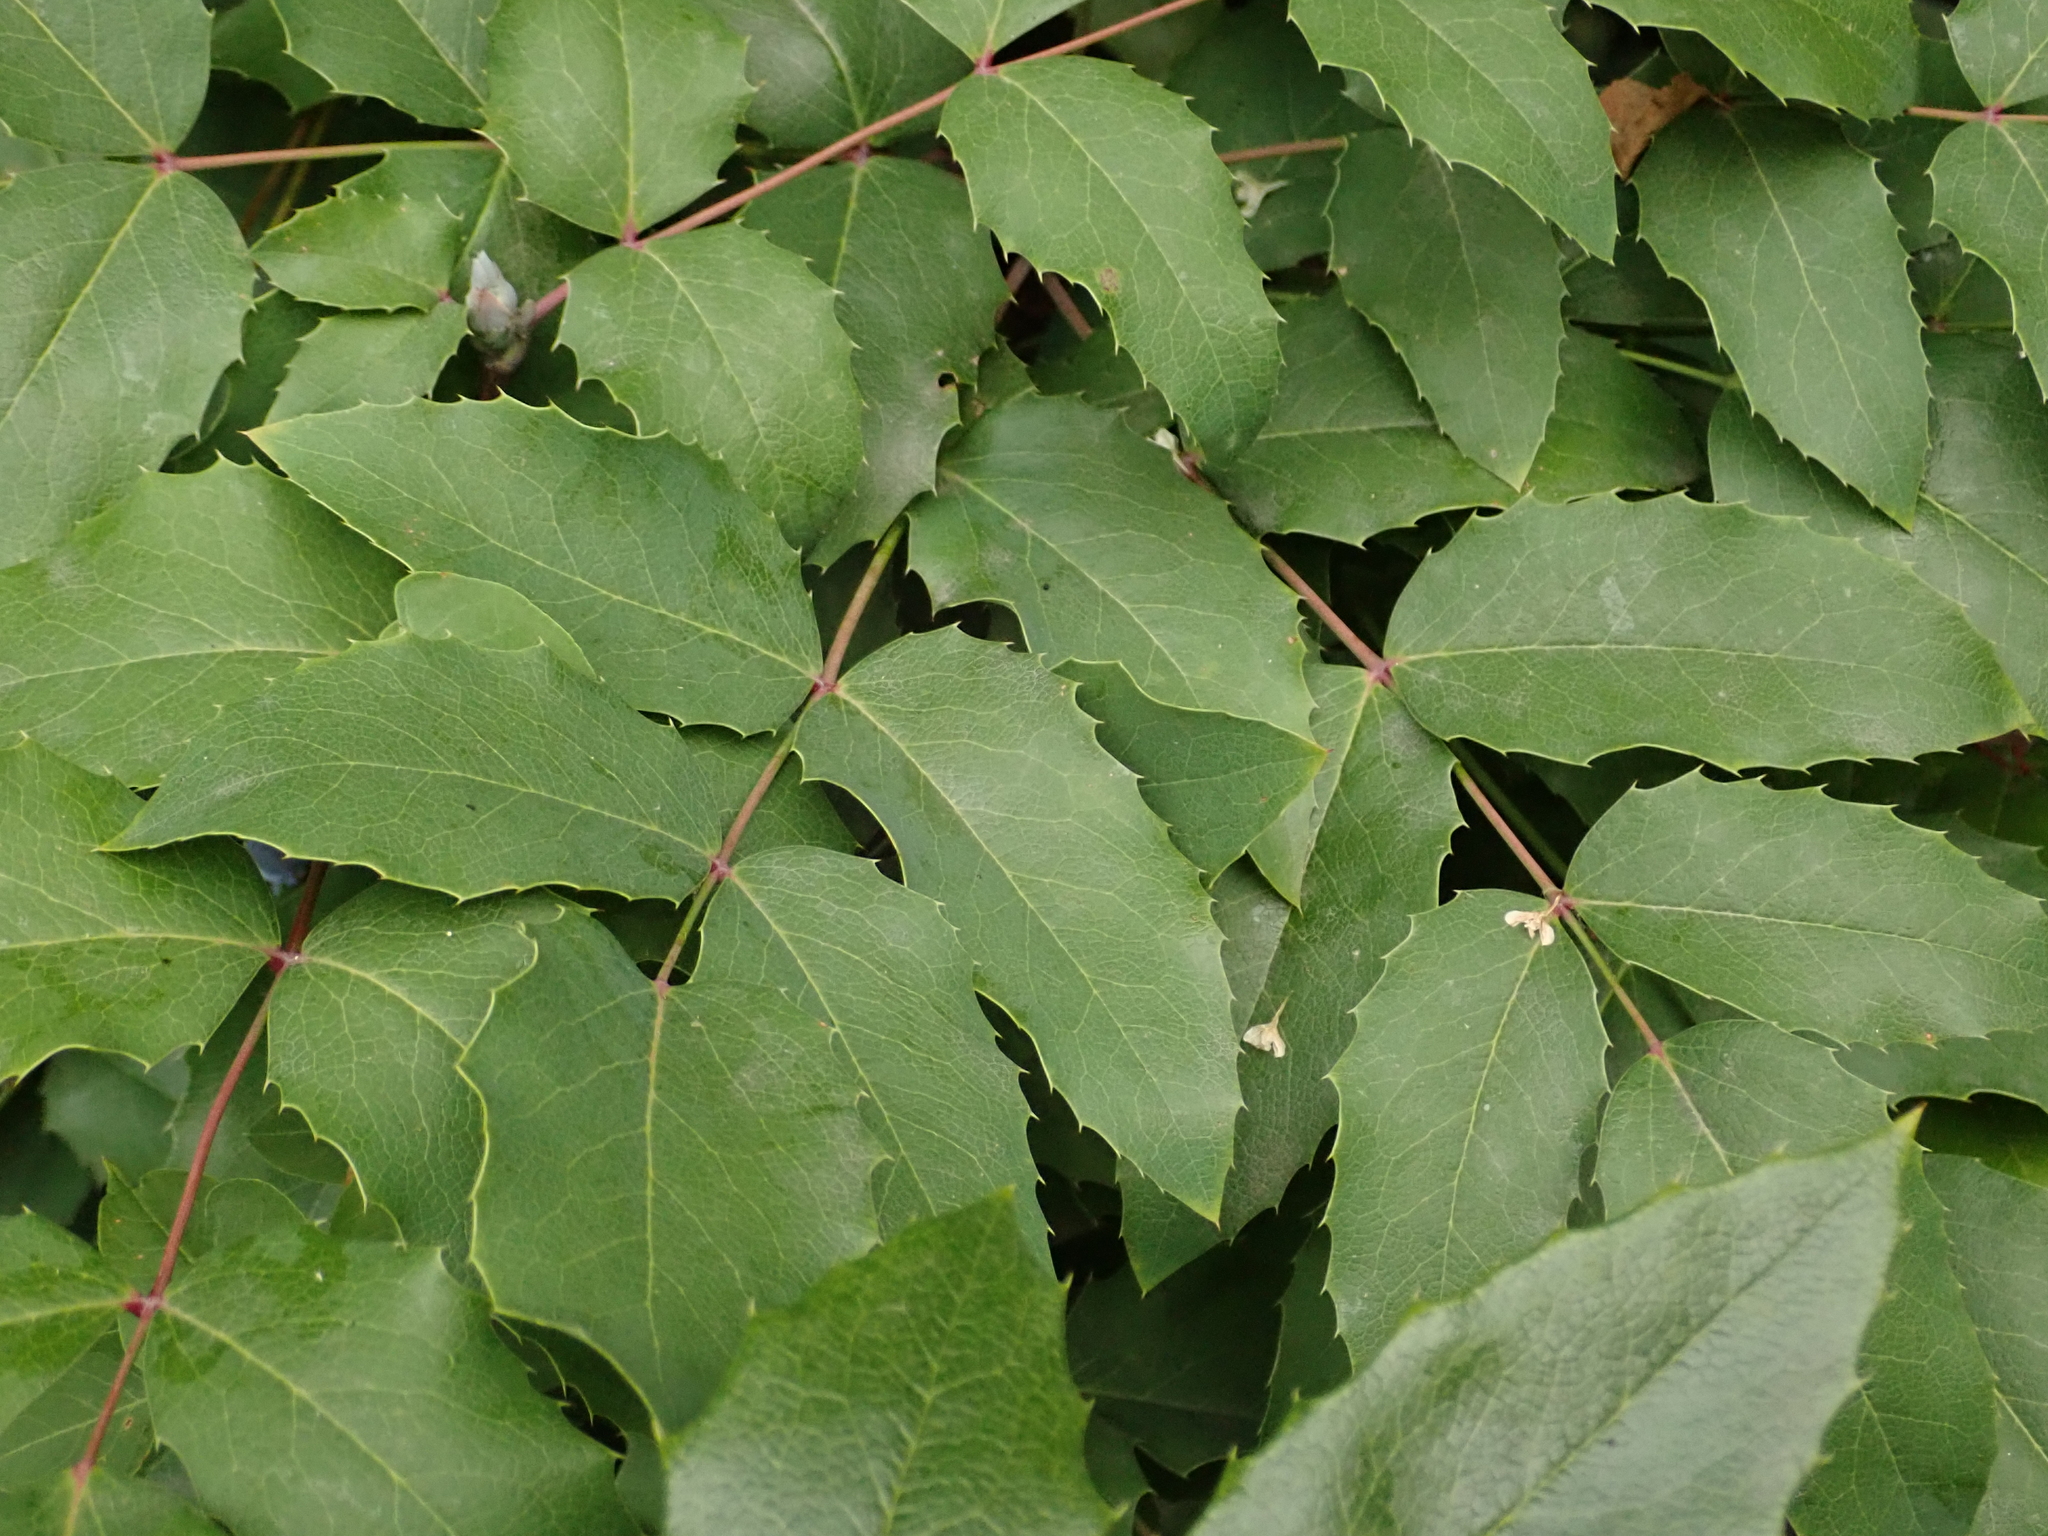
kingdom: Plantae
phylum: Tracheophyta
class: Magnoliopsida
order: Ranunculales
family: Berberidaceae
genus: Mahonia
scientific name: Mahonia aquifolium
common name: Oregon-grape
